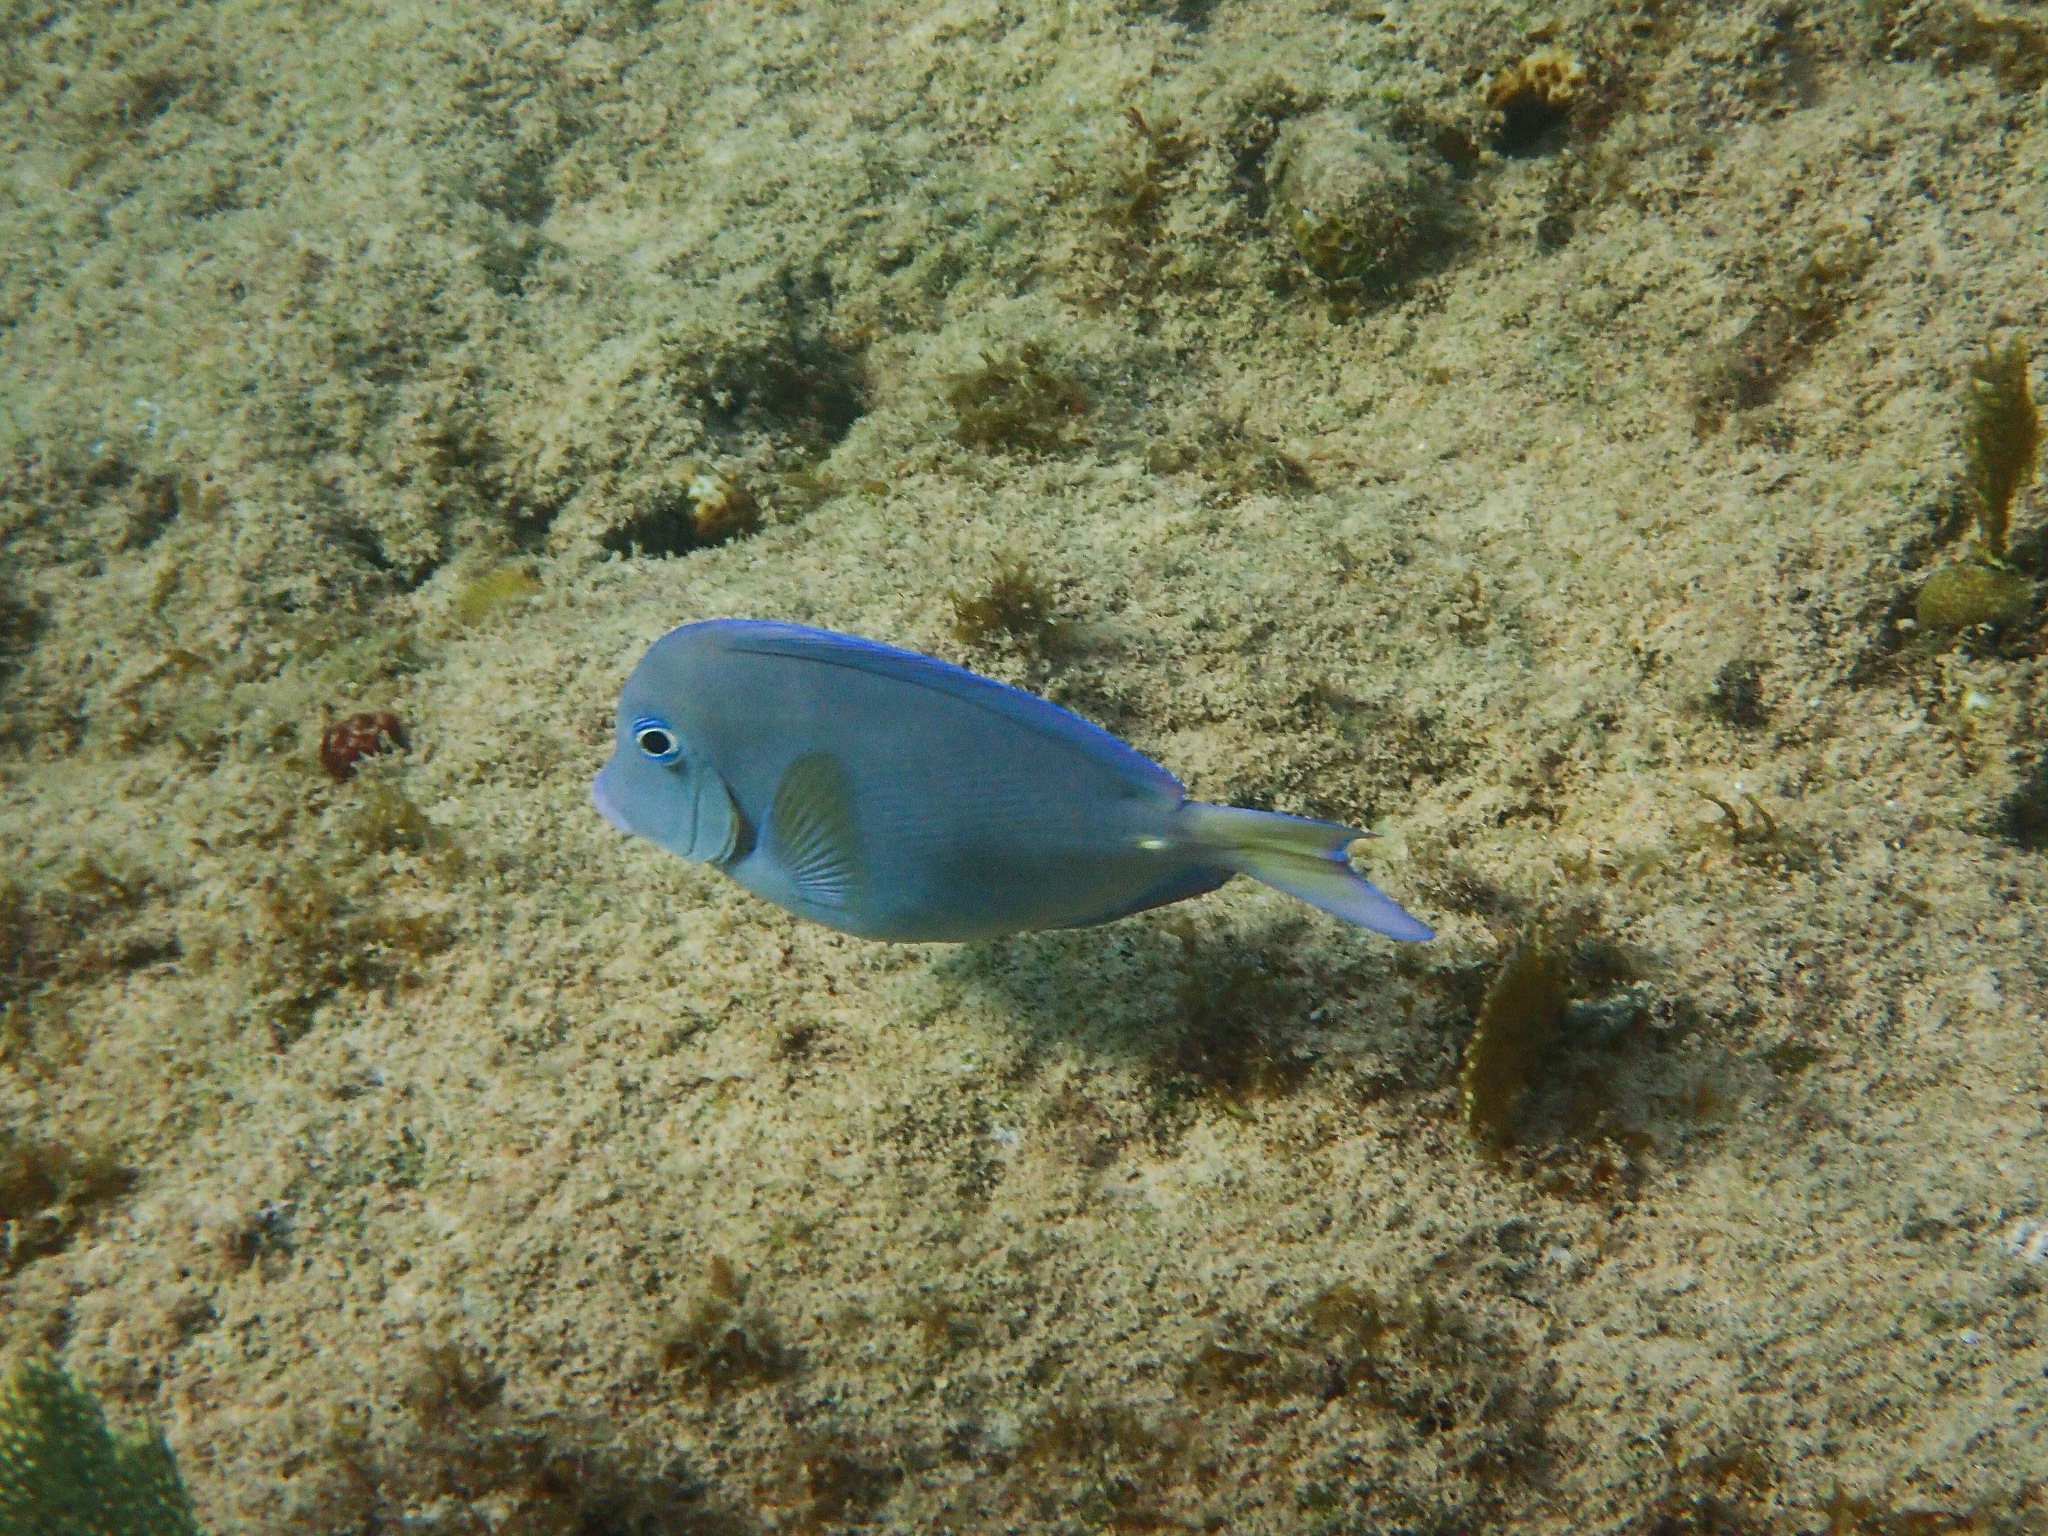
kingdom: Animalia
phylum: Chordata
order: Perciformes
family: Acanthuridae
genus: Acanthurus
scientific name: Acanthurus coeruleus
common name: Blue tang
